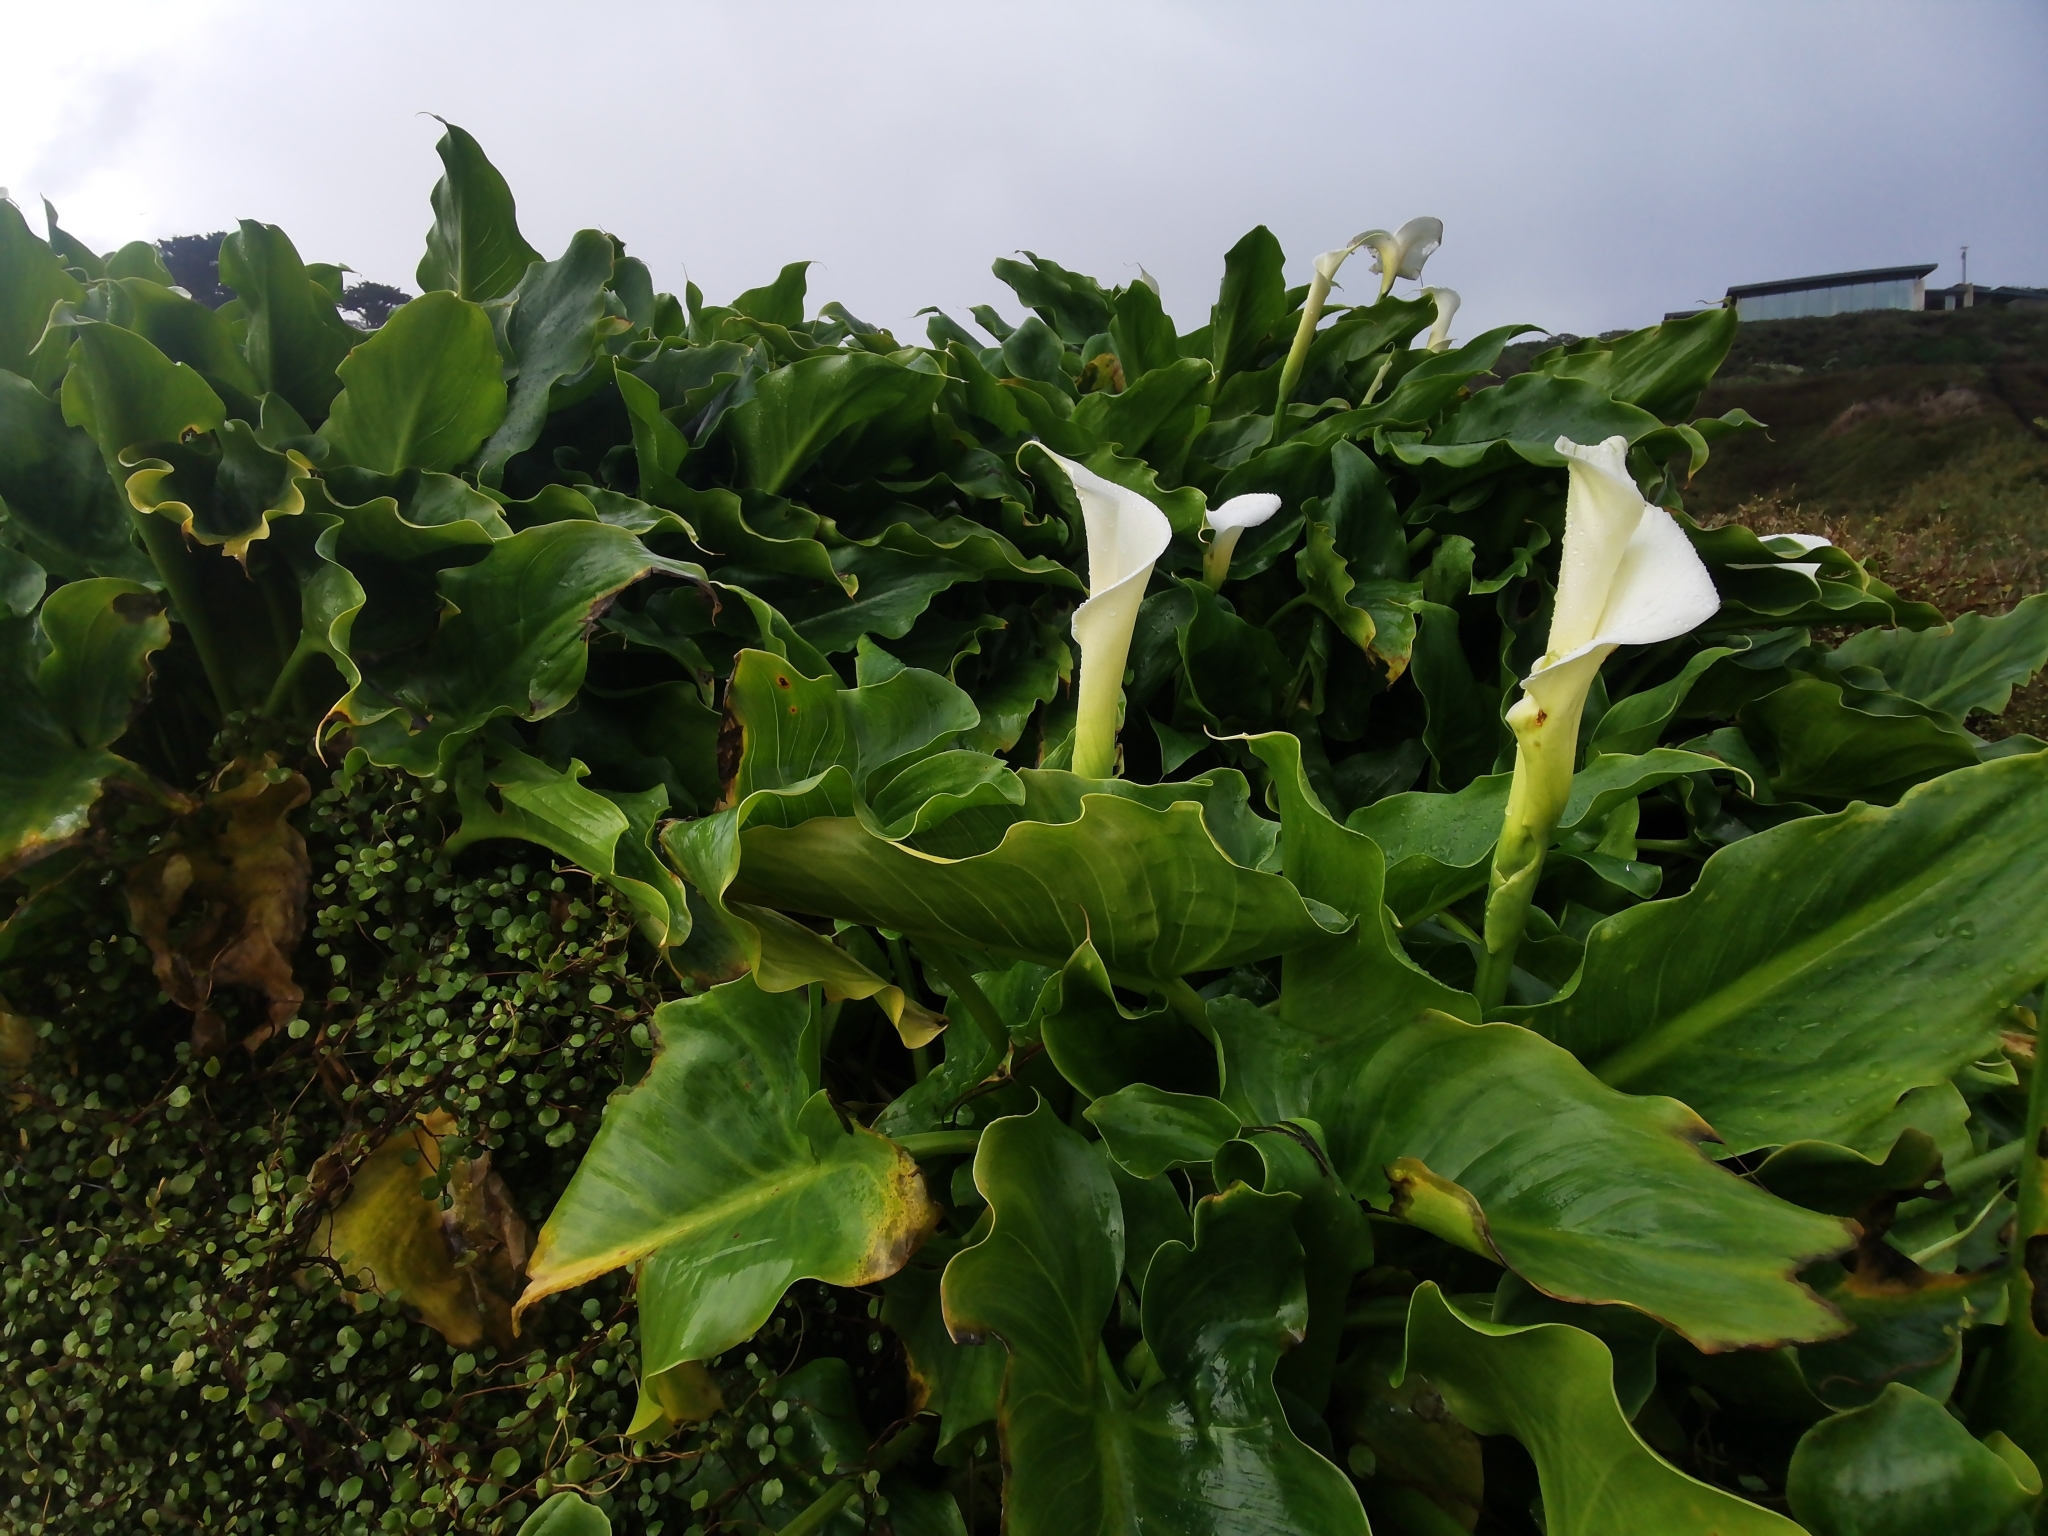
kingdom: Plantae
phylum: Tracheophyta
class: Liliopsida
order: Alismatales
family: Araceae
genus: Zantedeschia
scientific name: Zantedeschia aethiopica
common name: Altar-lily
